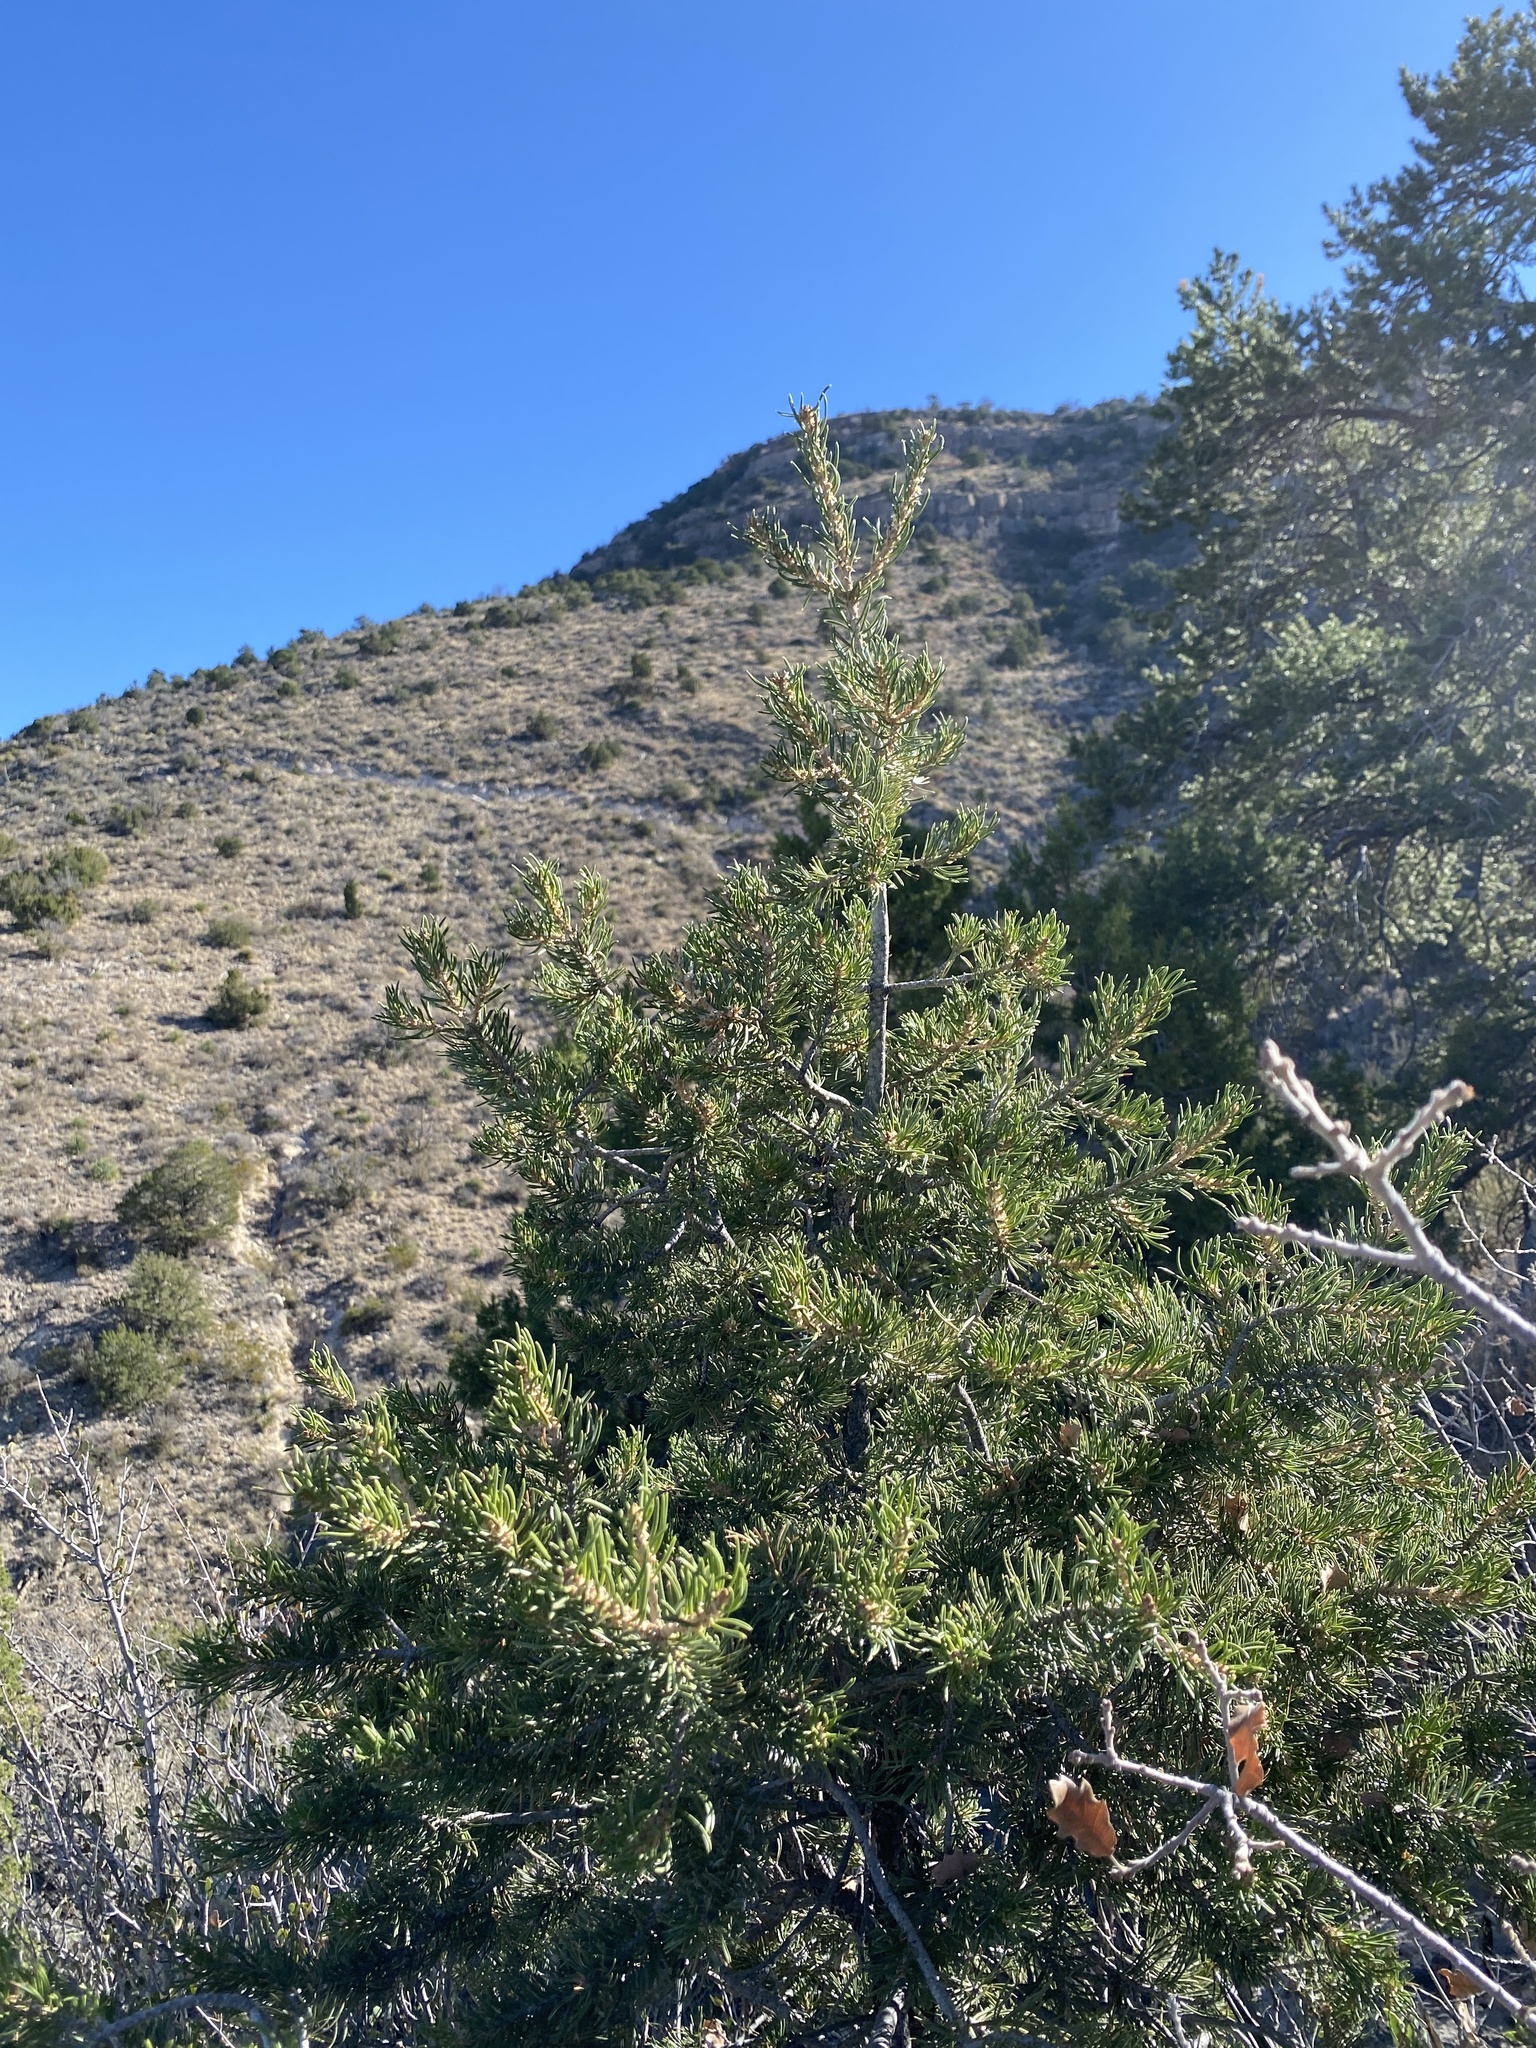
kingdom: Plantae
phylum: Tracheophyta
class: Pinopsida
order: Pinales
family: Pinaceae
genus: Pinus
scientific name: Pinus edulis
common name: Colorado pinyon
